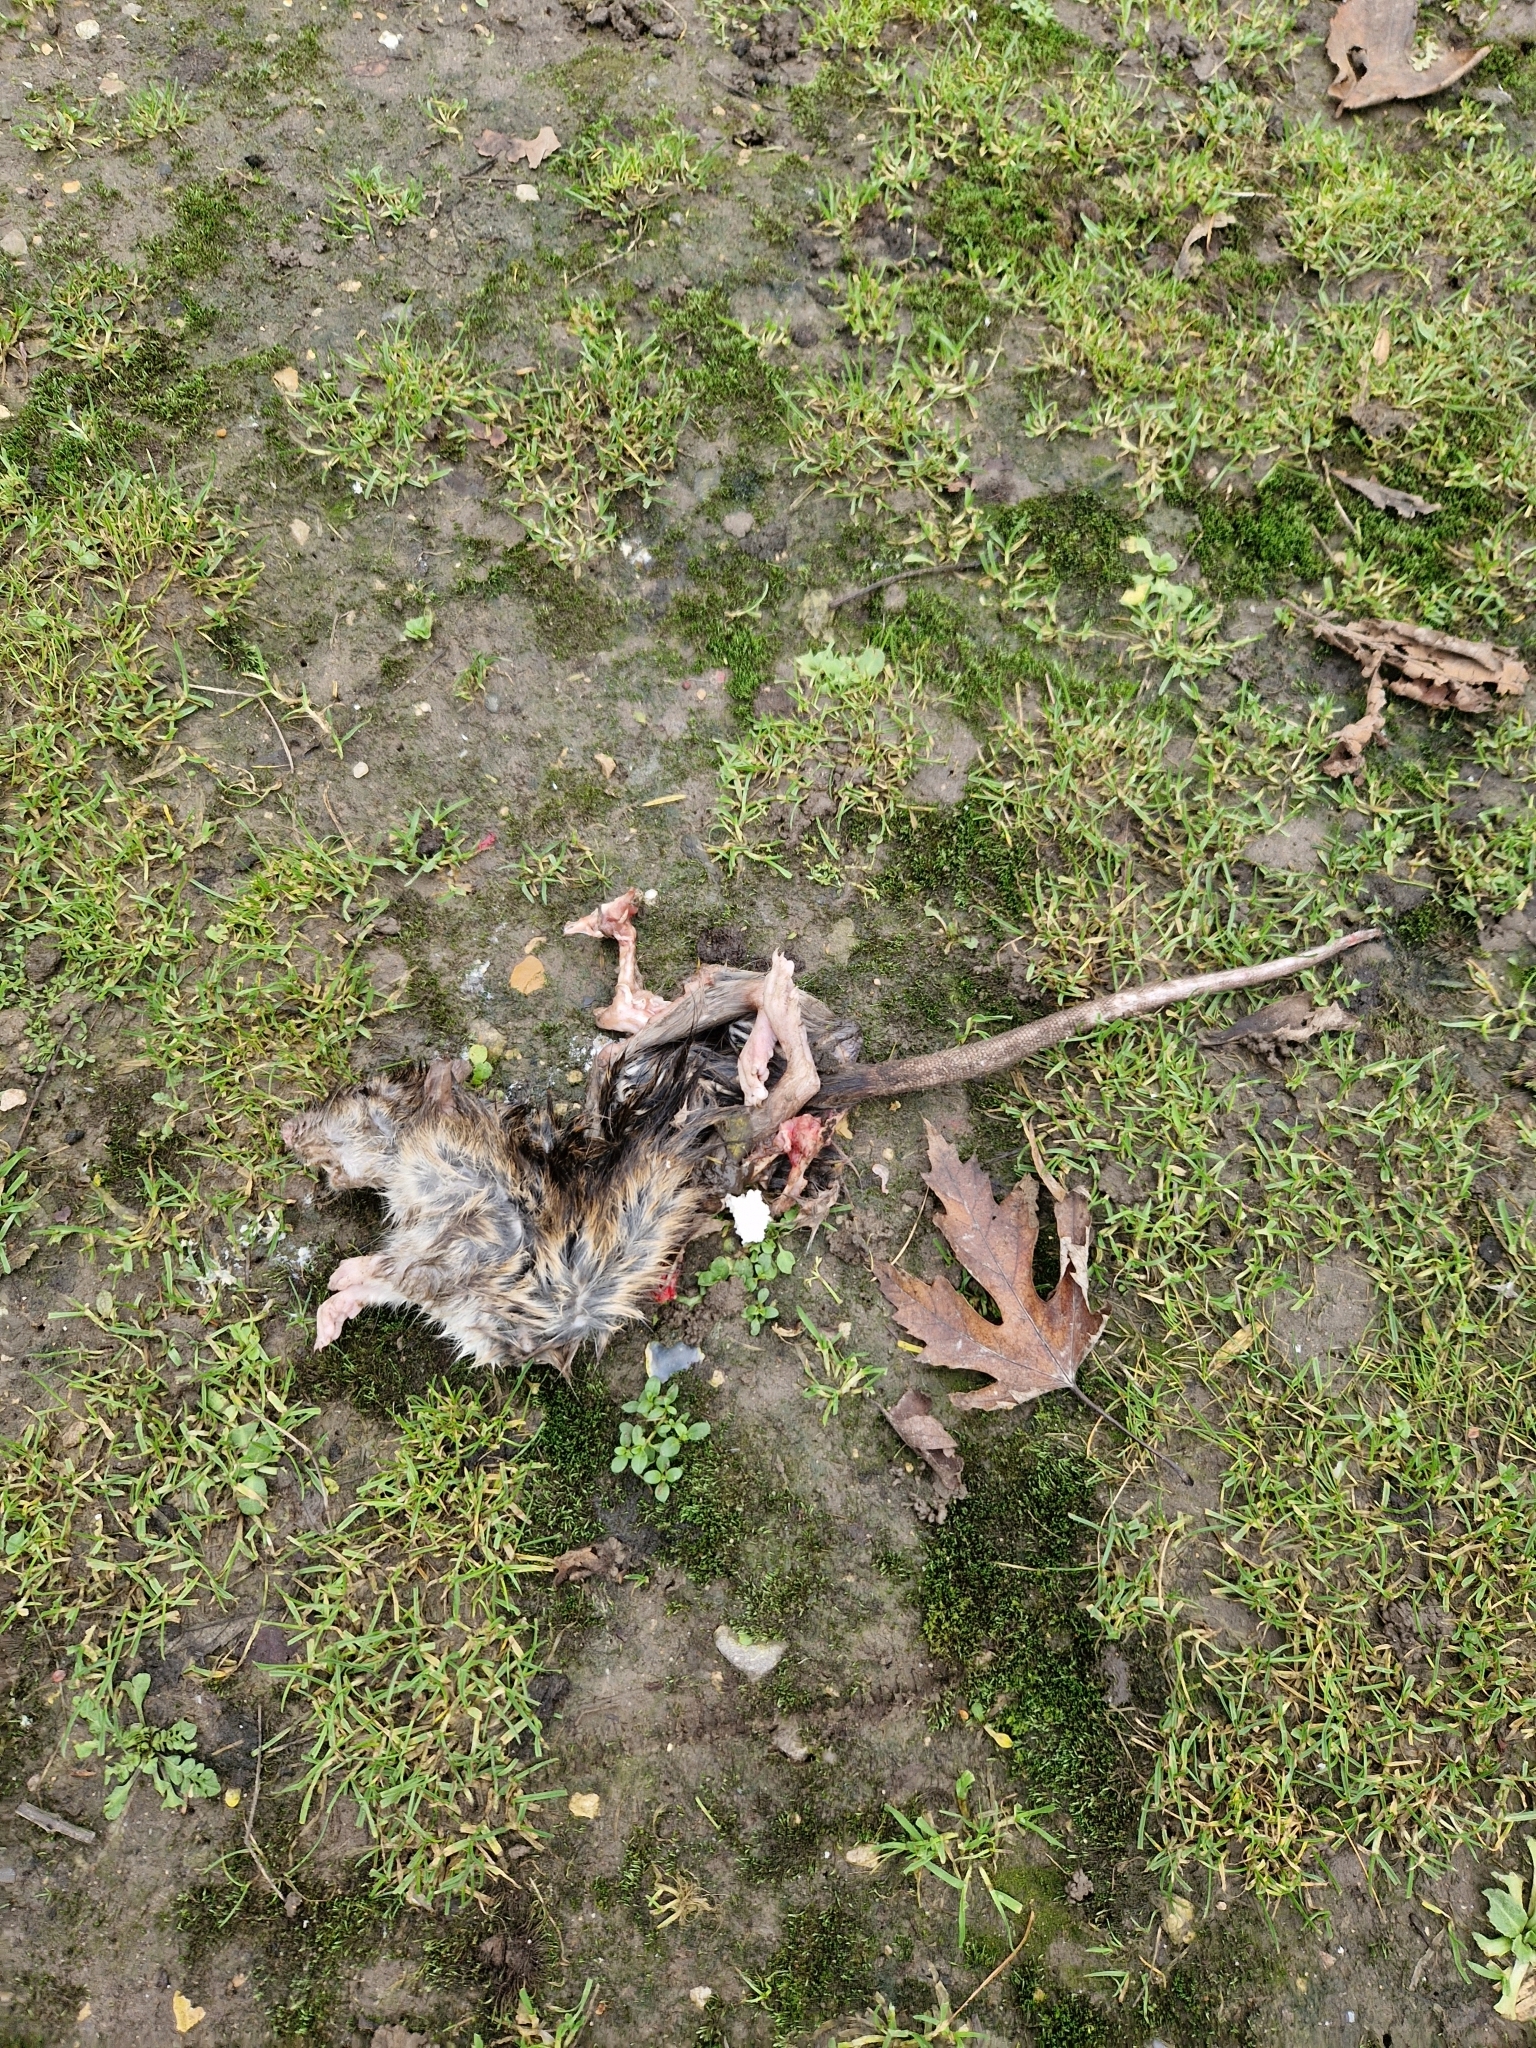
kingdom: Animalia
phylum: Chordata
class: Mammalia
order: Rodentia
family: Muridae
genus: Rattus
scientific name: Rattus norvegicus
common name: Brown rat
